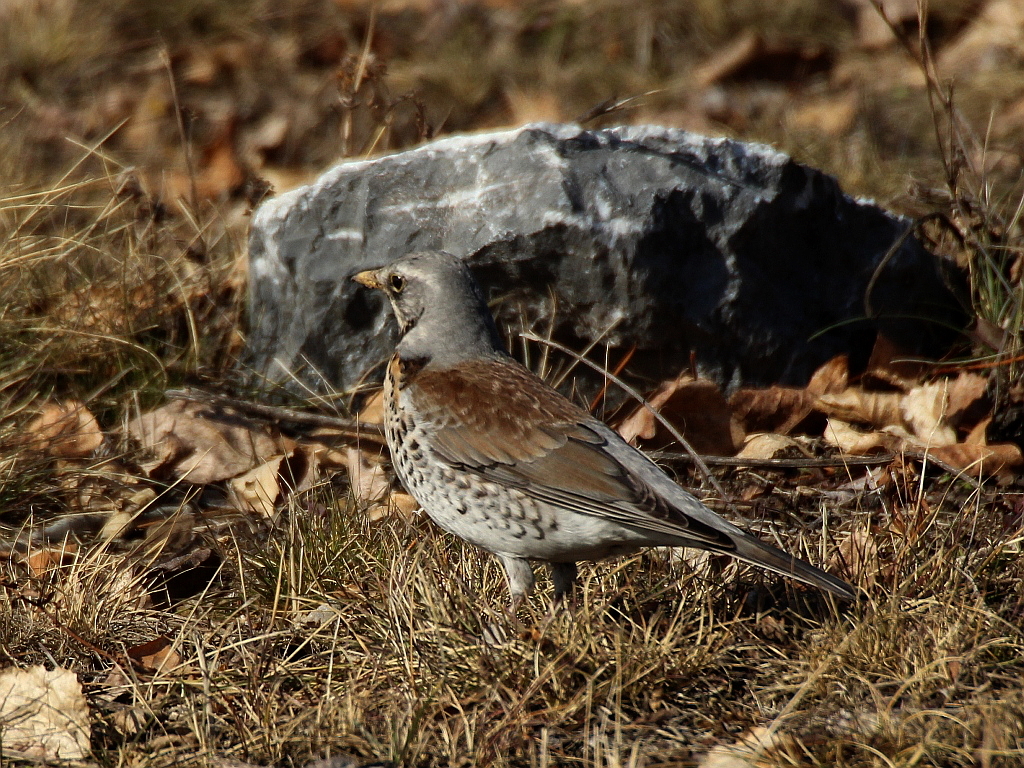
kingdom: Animalia
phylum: Chordata
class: Aves
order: Passeriformes
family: Turdidae
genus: Turdus
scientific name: Turdus pilaris
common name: Fieldfare
